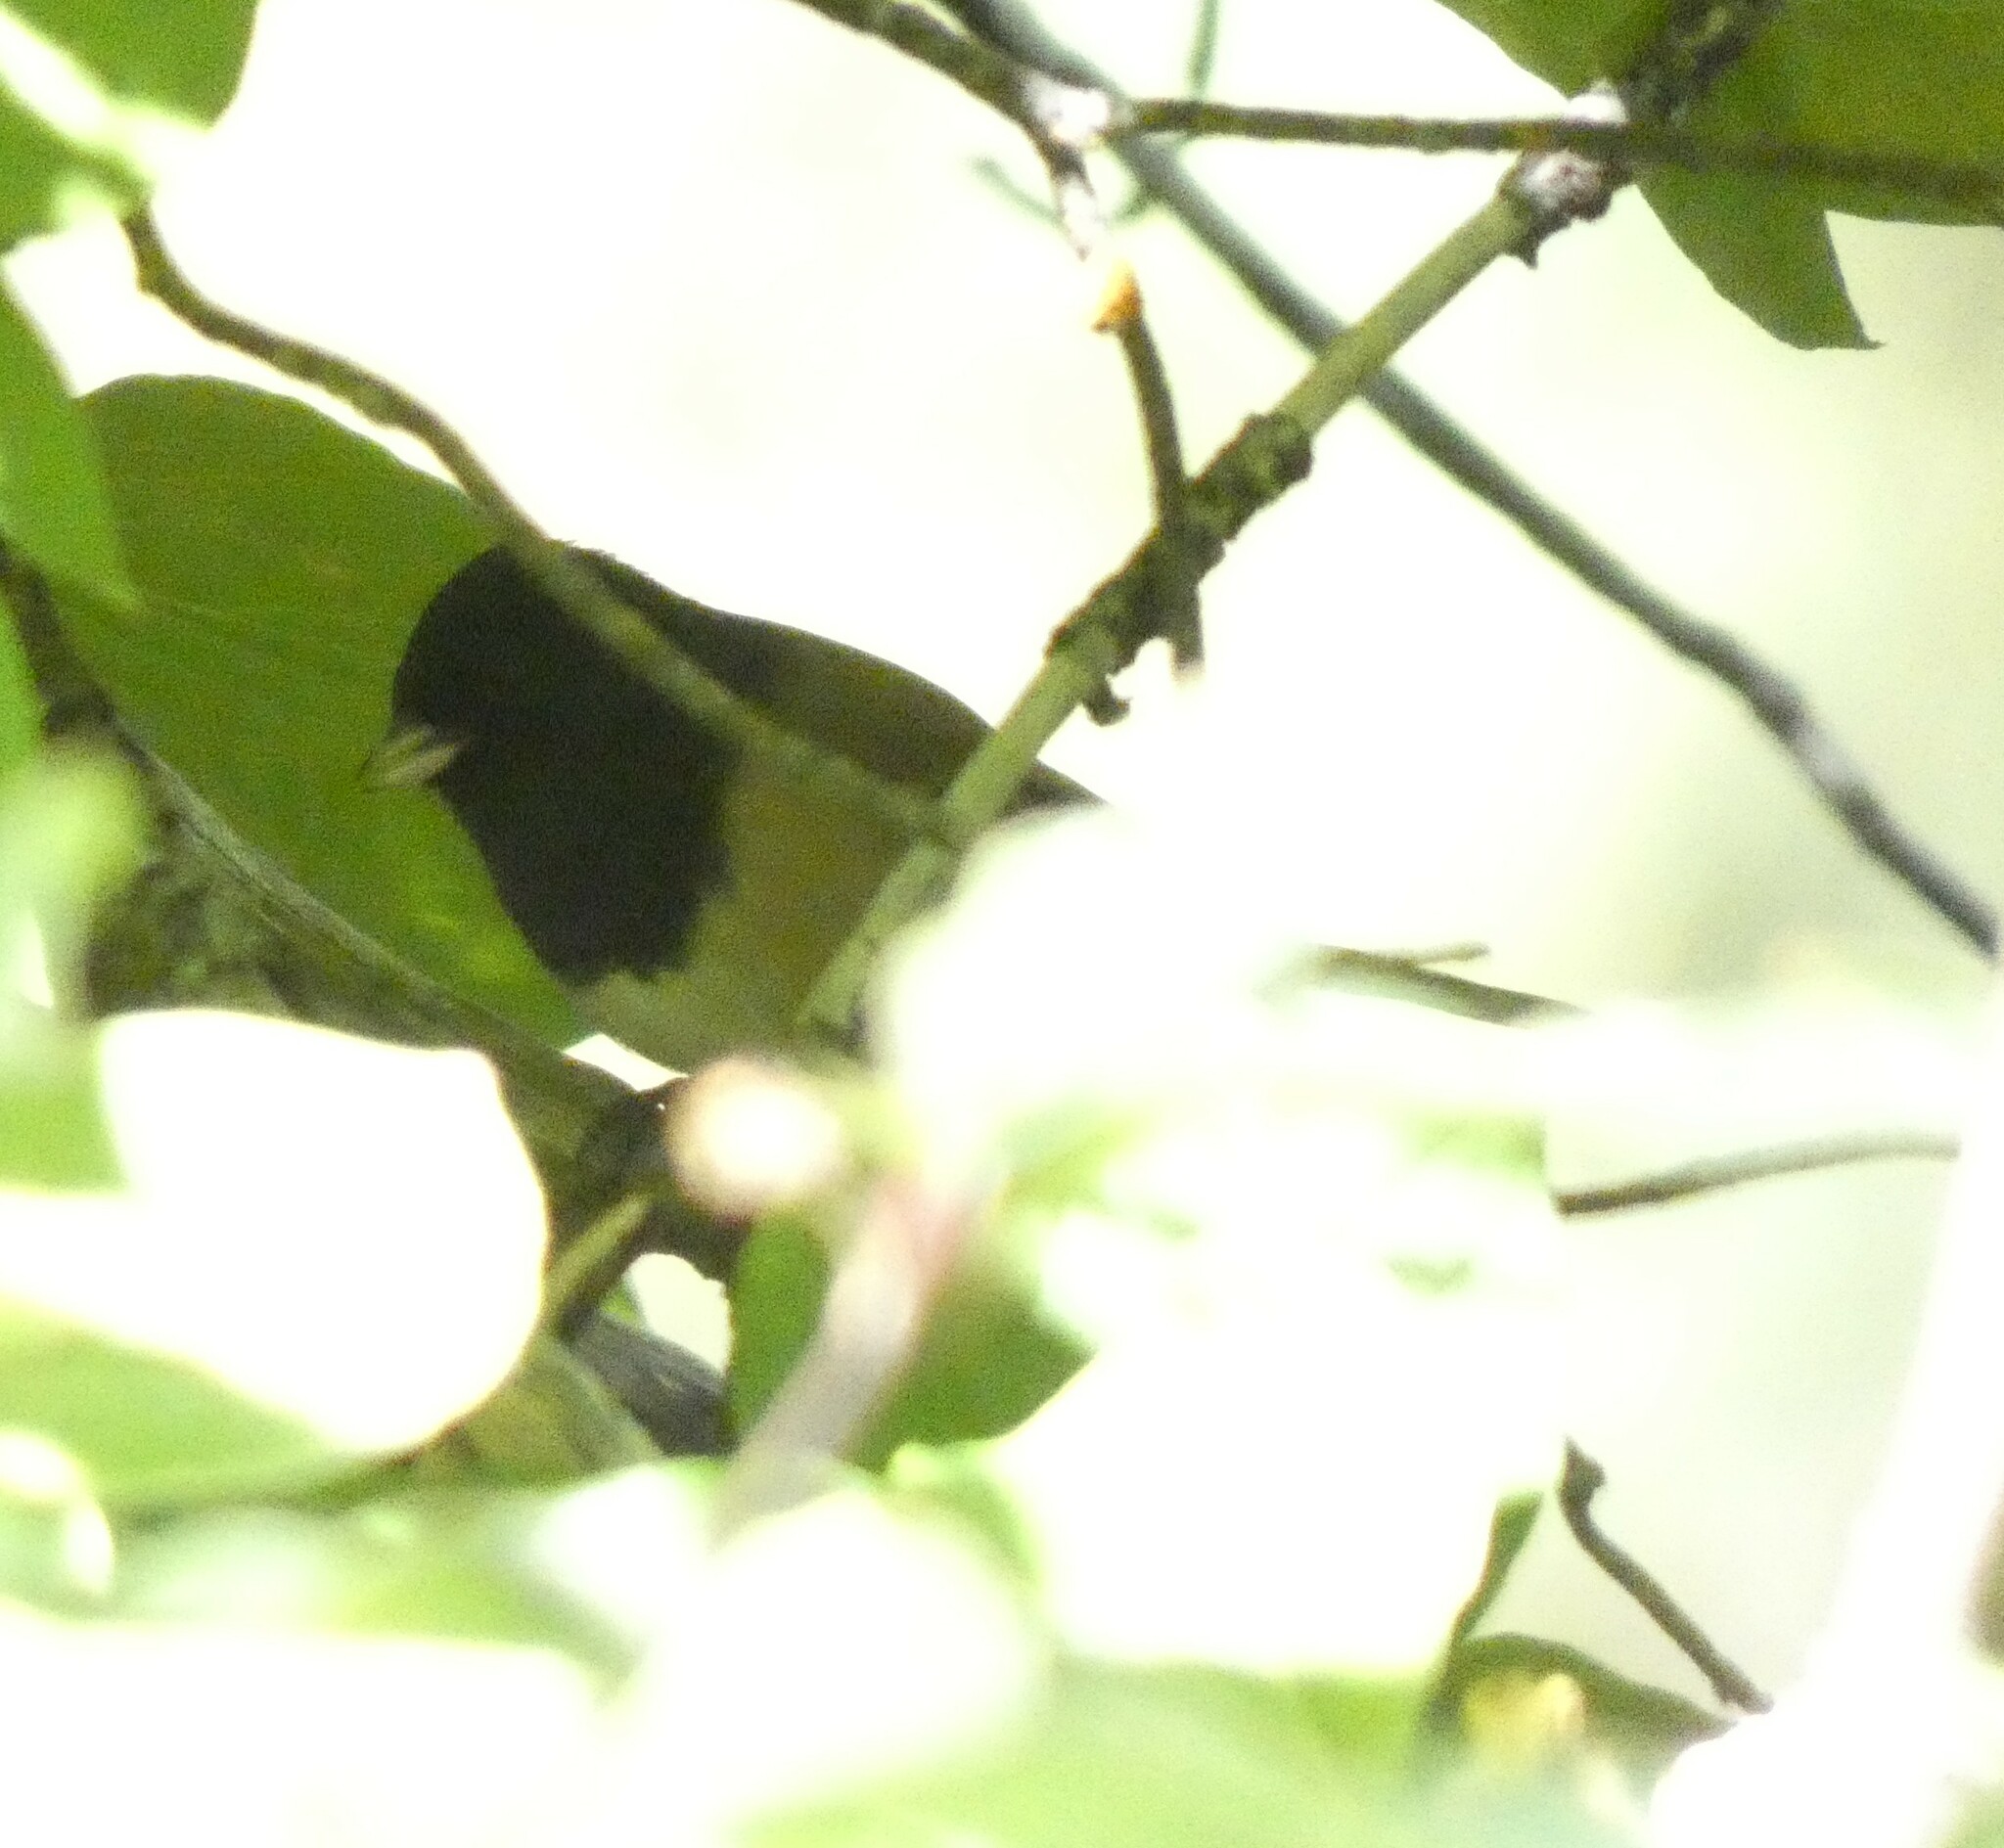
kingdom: Animalia
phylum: Chordata
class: Aves
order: Passeriformes
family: Passerellidae
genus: Junco
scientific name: Junco hyemalis
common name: Dark-eyed junco
